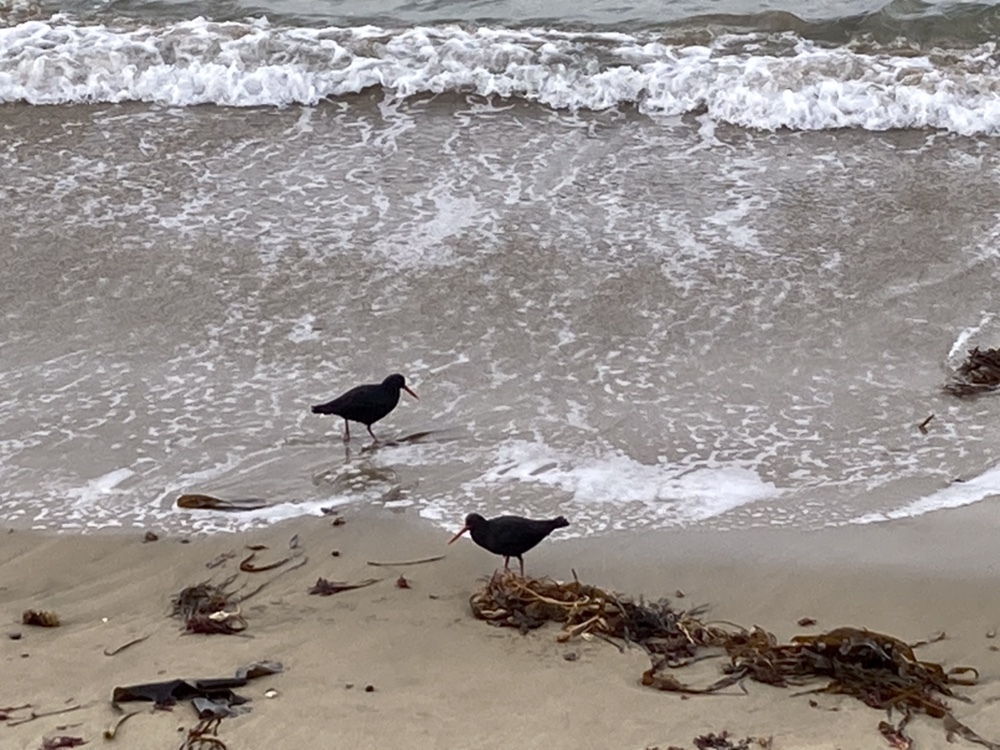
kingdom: Animalia
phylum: Chordata
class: Aves
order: Charadriiformes
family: Haematopodidae
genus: Haematopus
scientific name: Haematopus unicolor
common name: Variable oystercatcher
